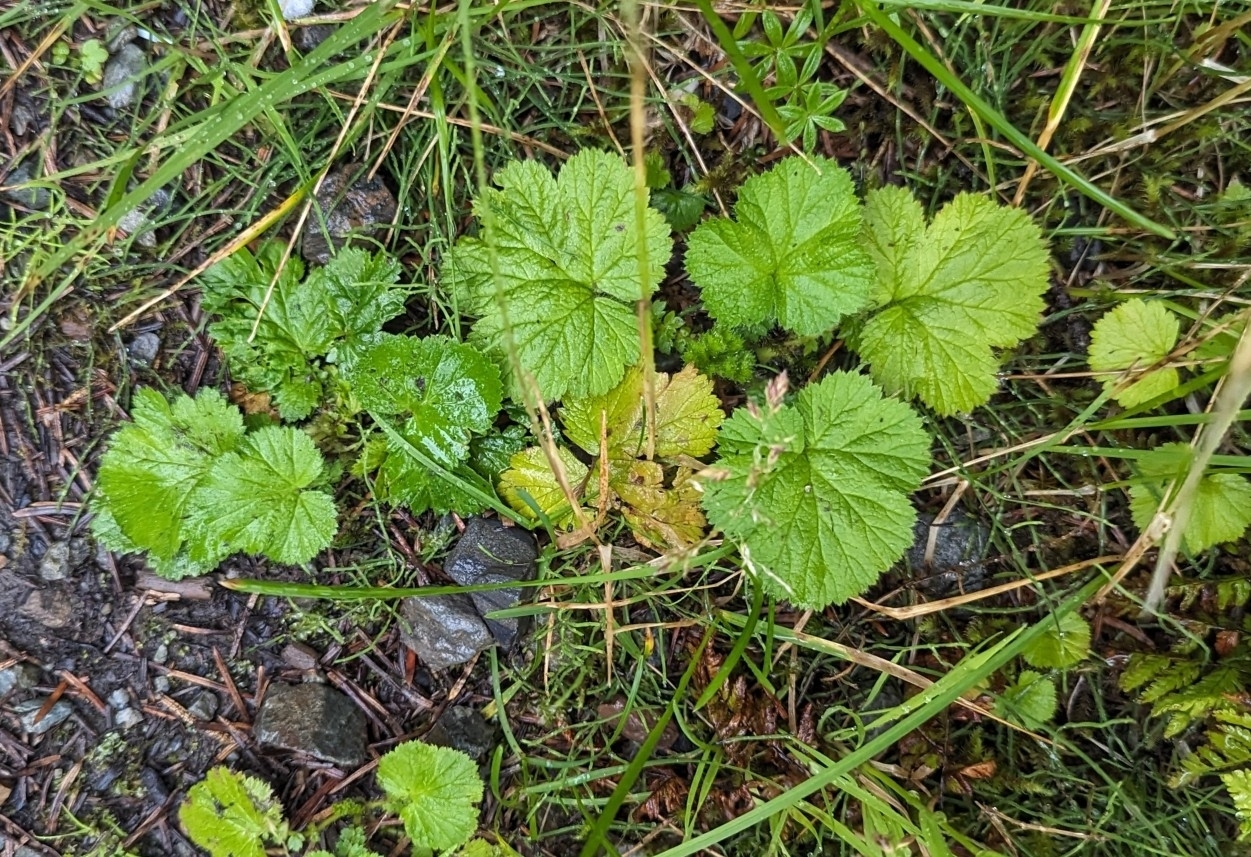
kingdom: Plantae
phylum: Tracheophyta
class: Magnoliopsida
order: Rosales
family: Rosaceae
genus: Geum
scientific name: Geum macrophyllum
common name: Large-leaved avens
